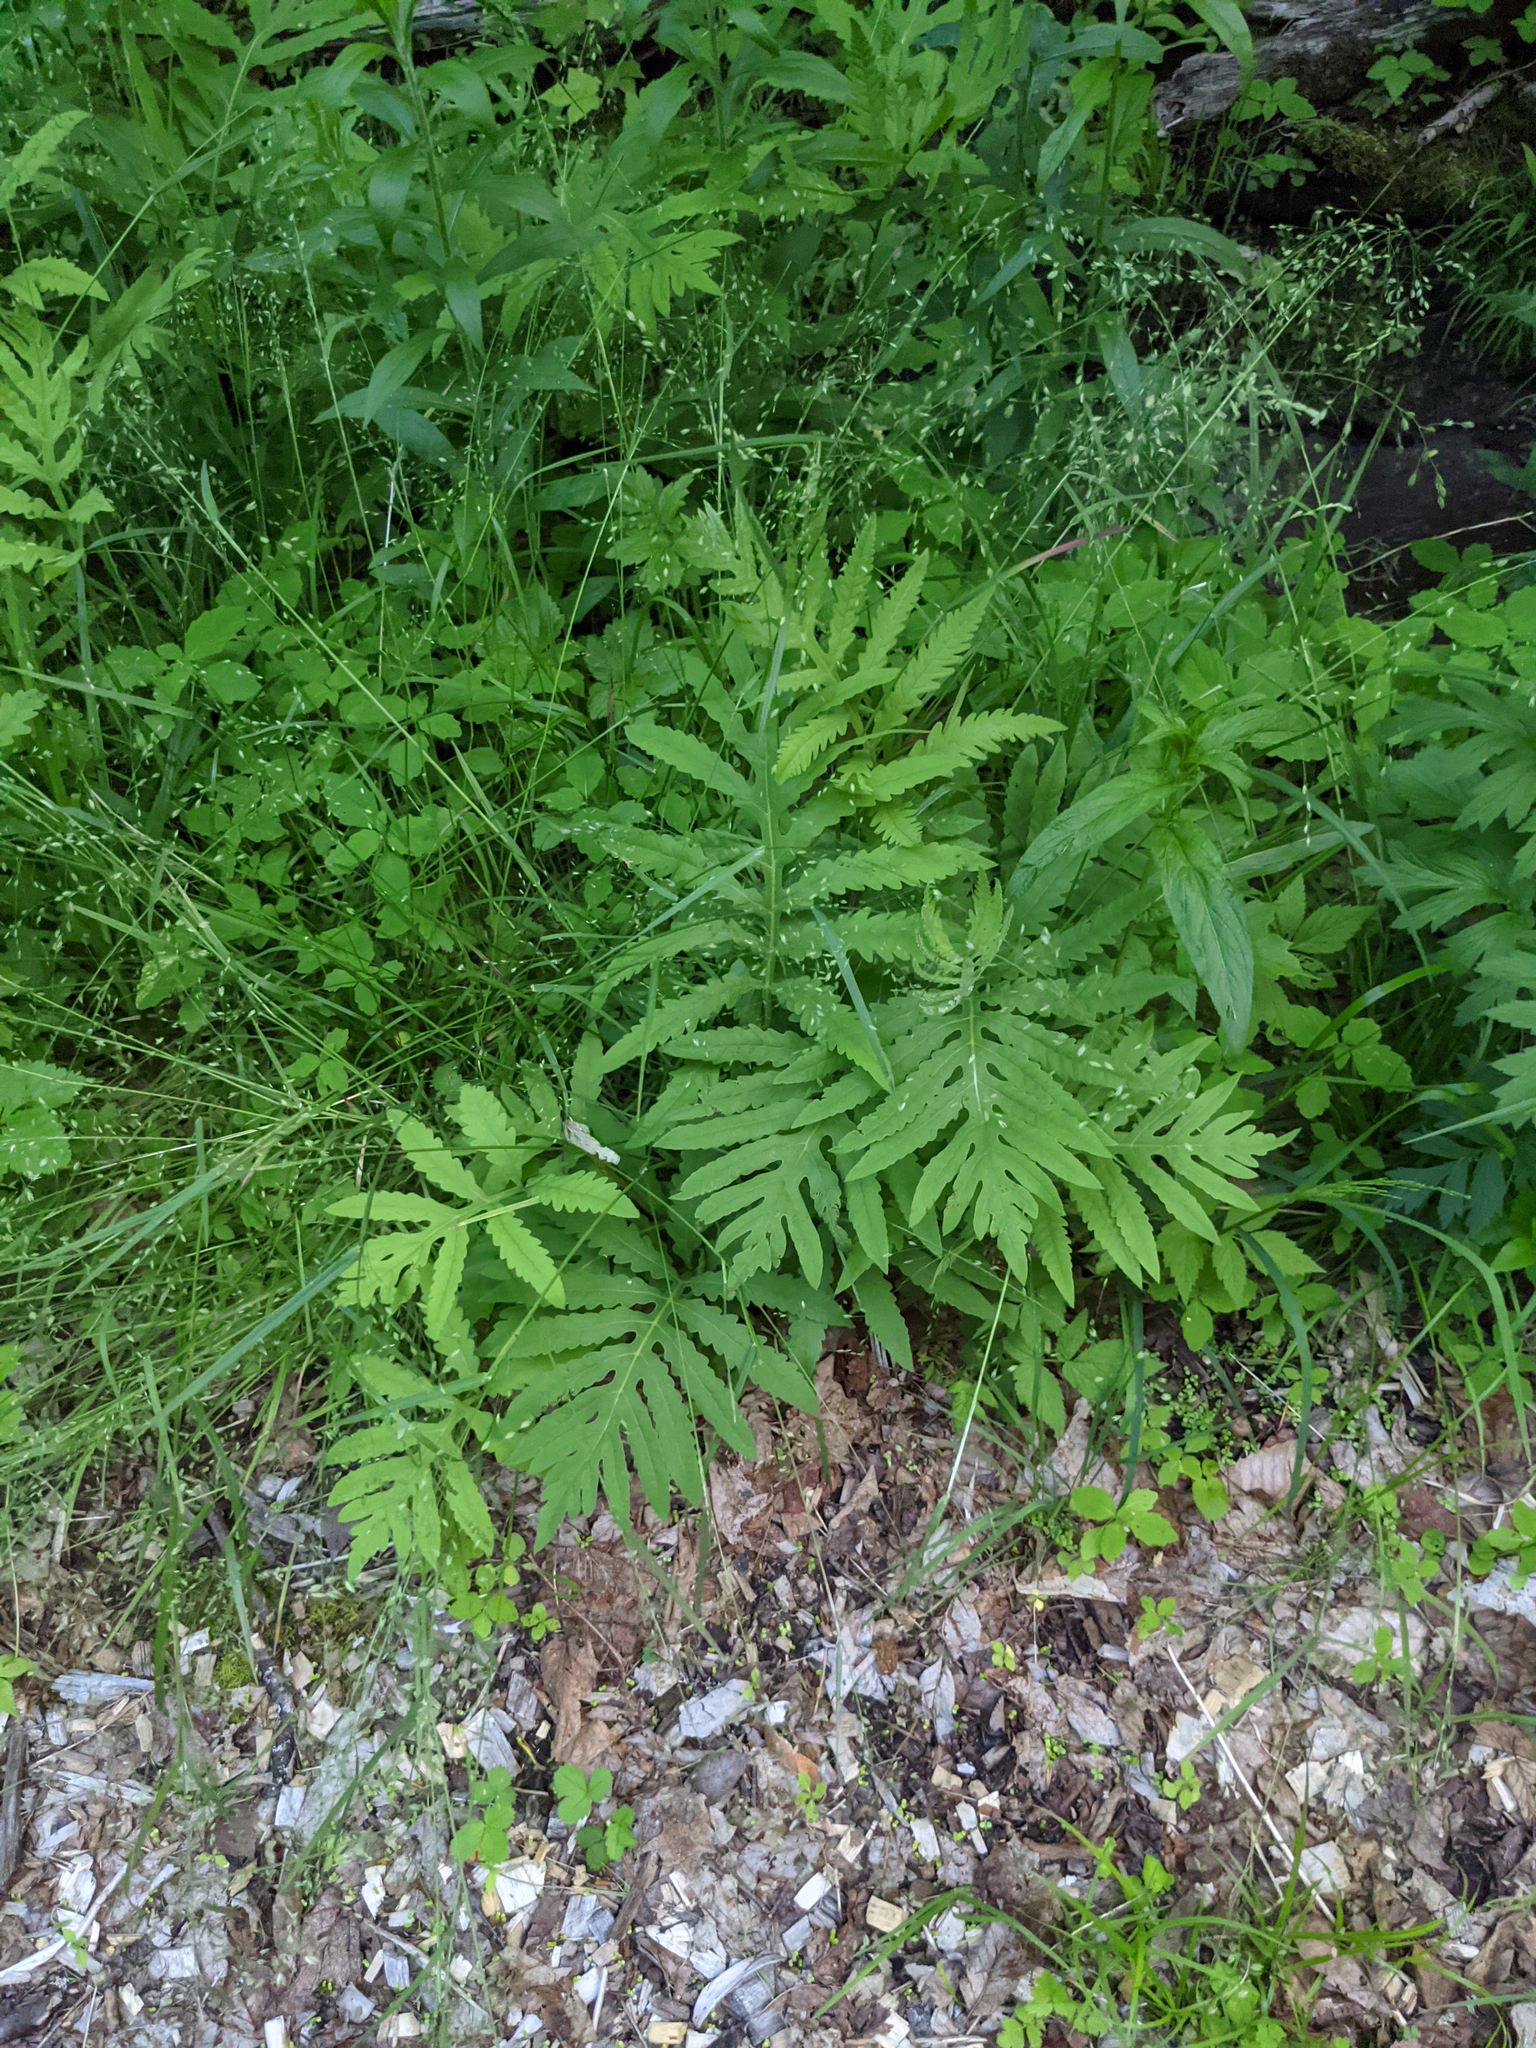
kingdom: Plantae
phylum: Tracheophyta
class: Polypodiopsida
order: Polypodiales
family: Onocleaceae
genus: Onoclea
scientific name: Onoclea sensibilis
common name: Sensitive fern
